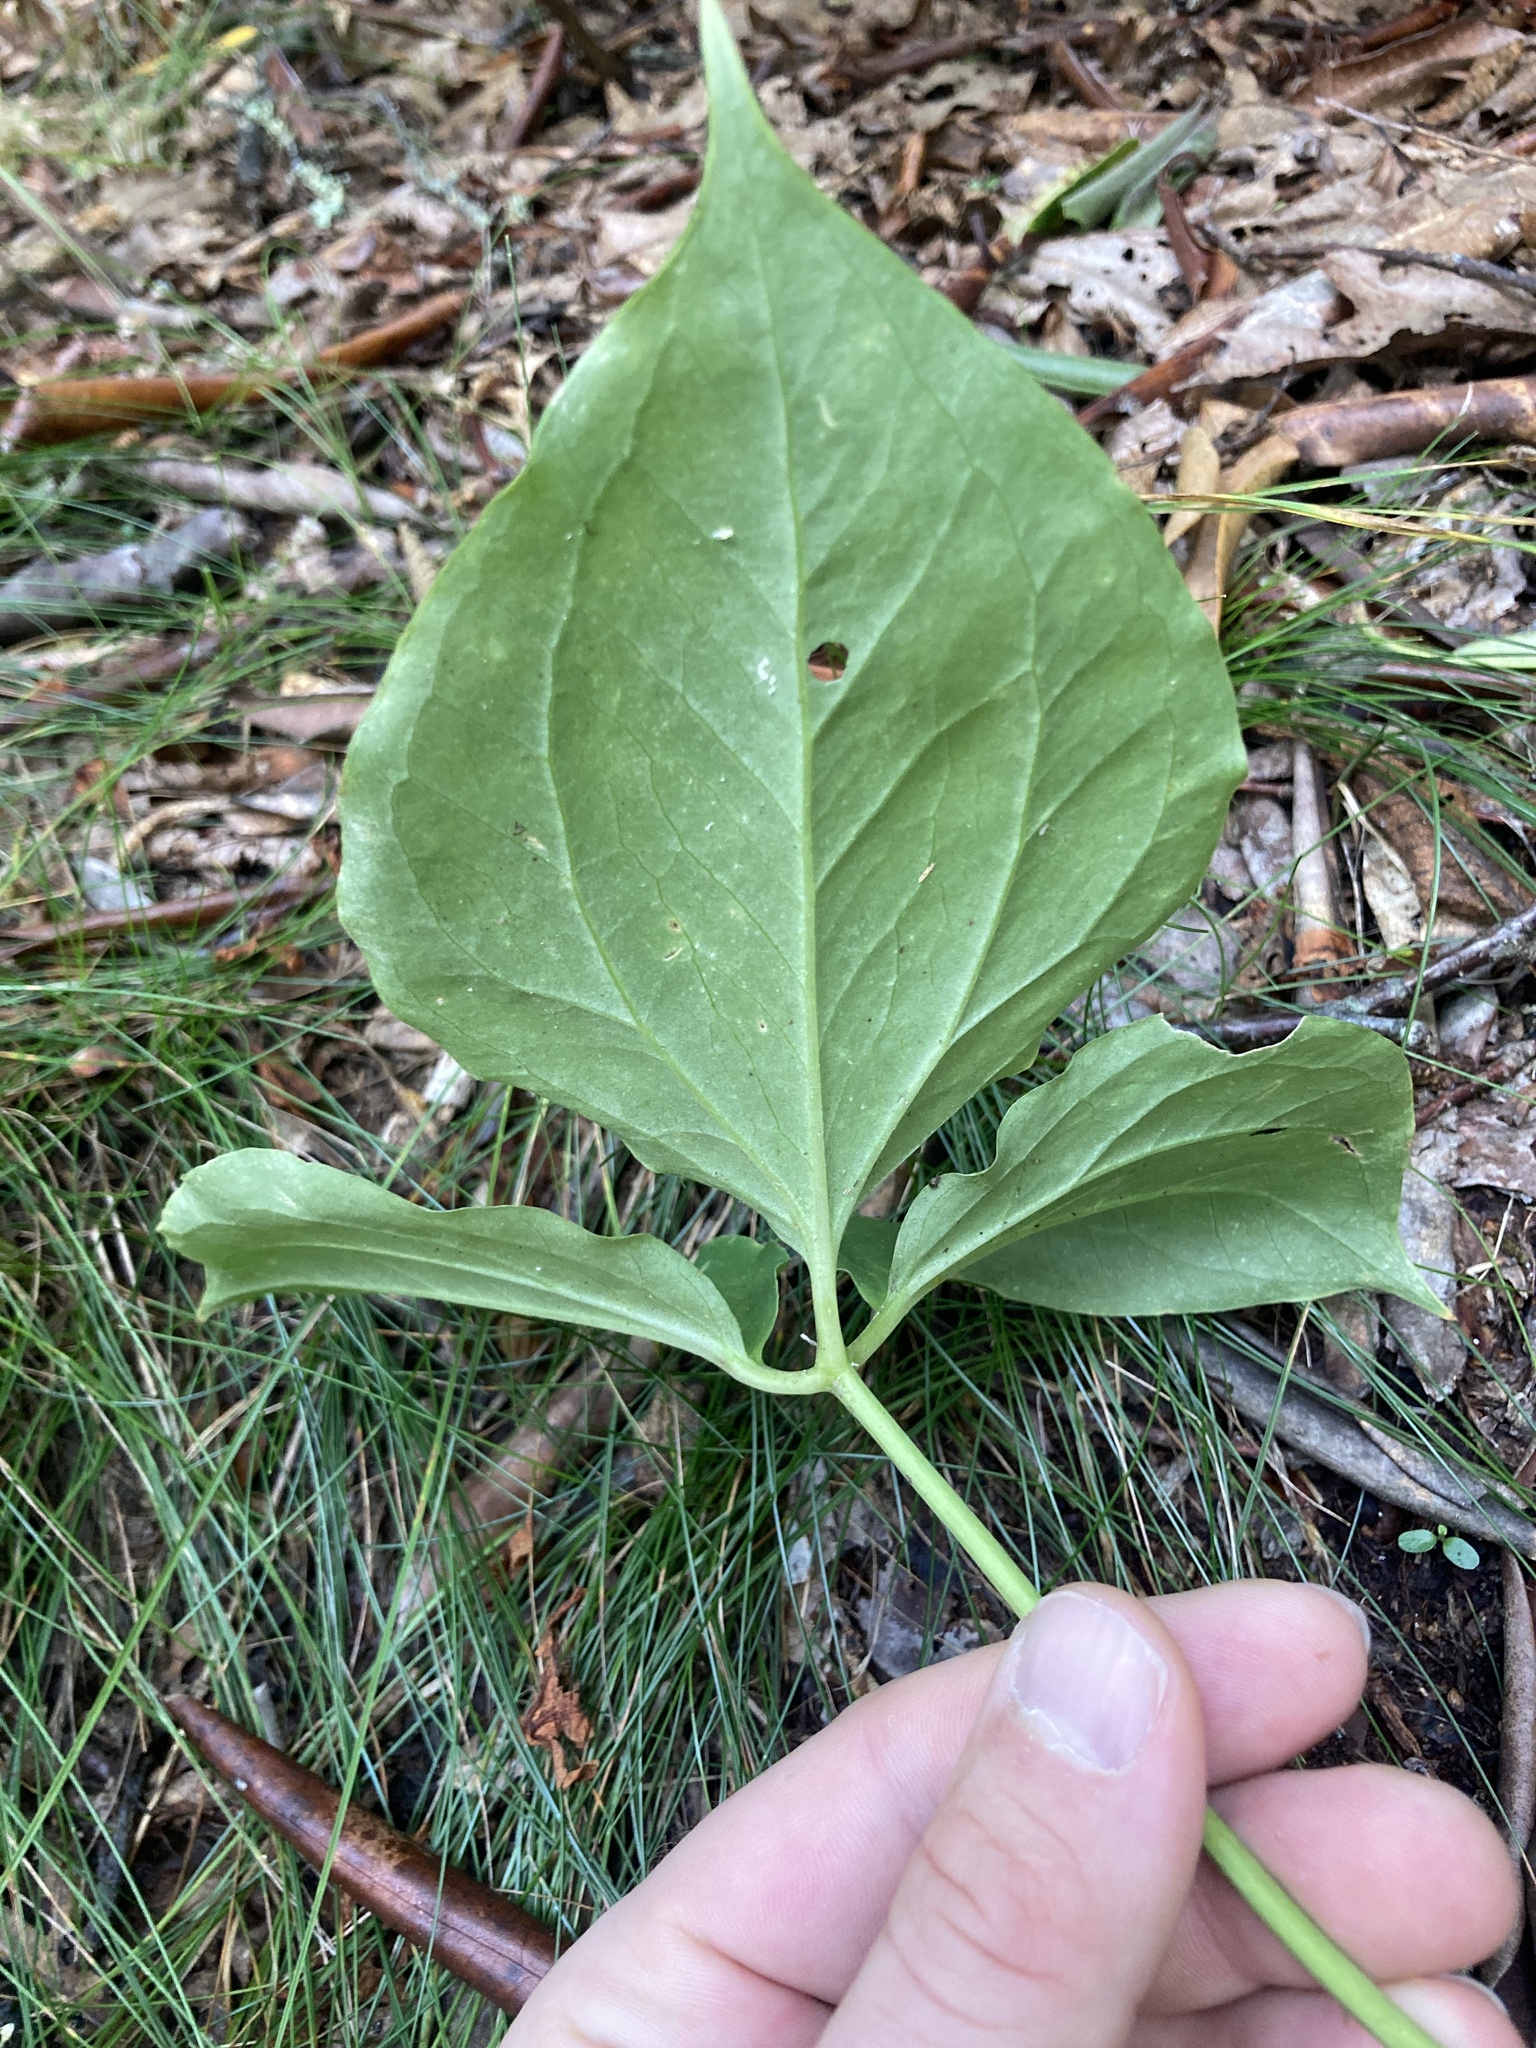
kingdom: Plantae
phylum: Tracheophyta
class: Liliopsida
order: Liliales
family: Melanthiaceae
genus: Trillium
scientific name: Trillium undulatum
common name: Paint trillium
